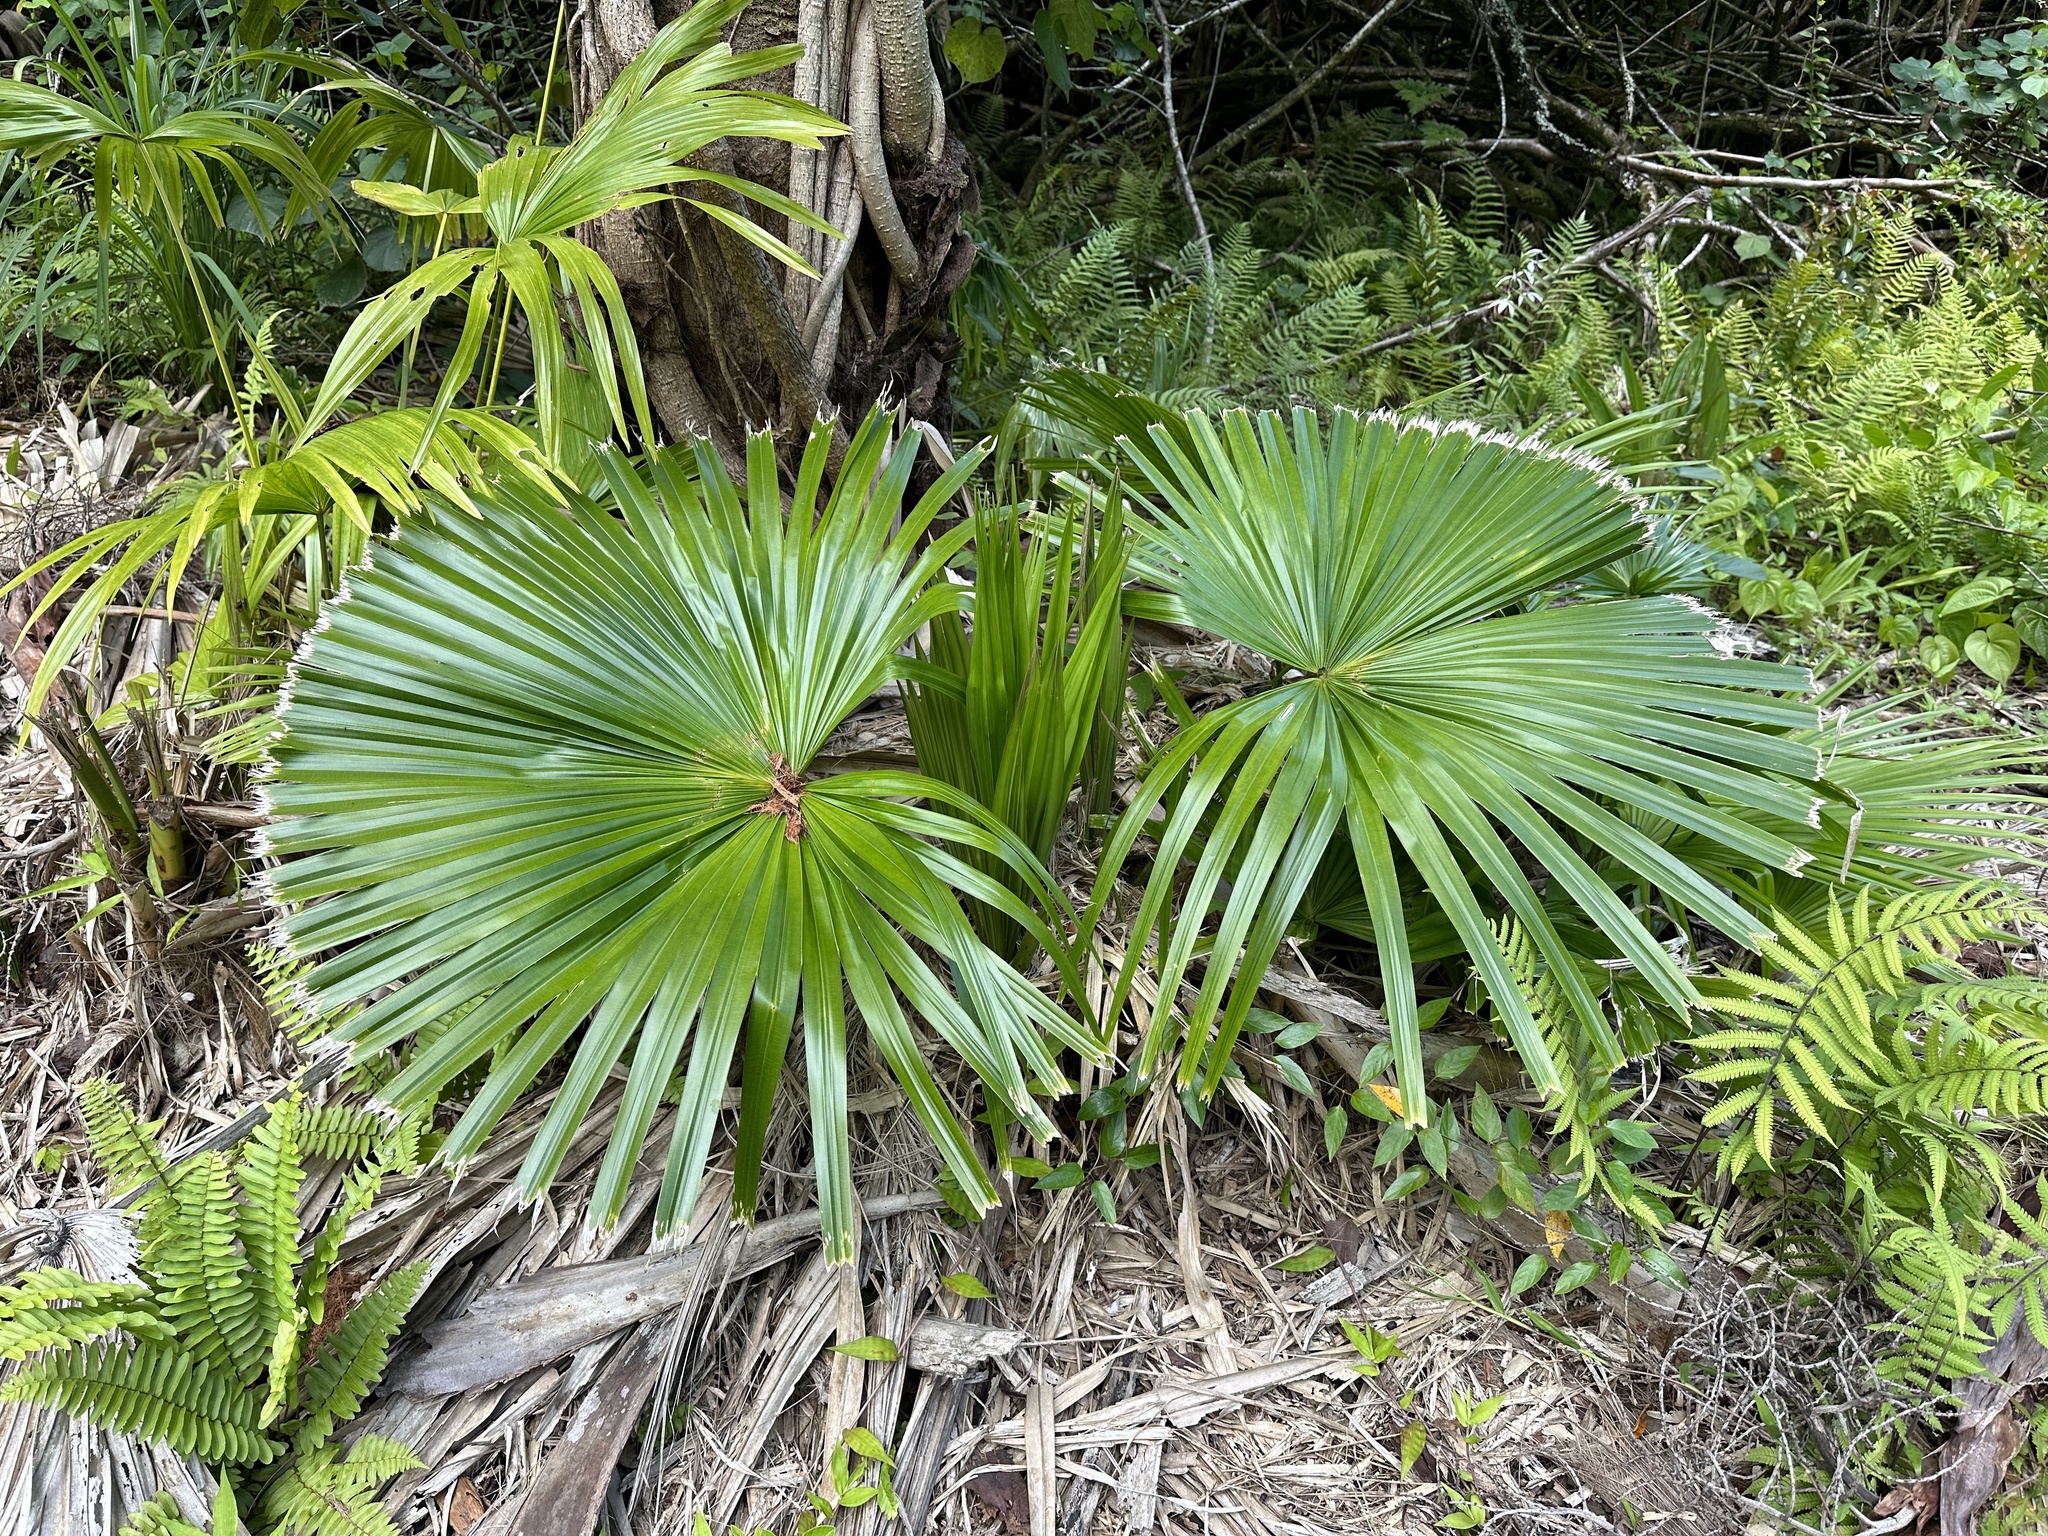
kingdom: Plantae
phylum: Tracheophyta
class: Liliopsida
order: Arecales
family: Arecaceae
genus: Livistona
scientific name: Livistona chinensis
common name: Fountain palm
